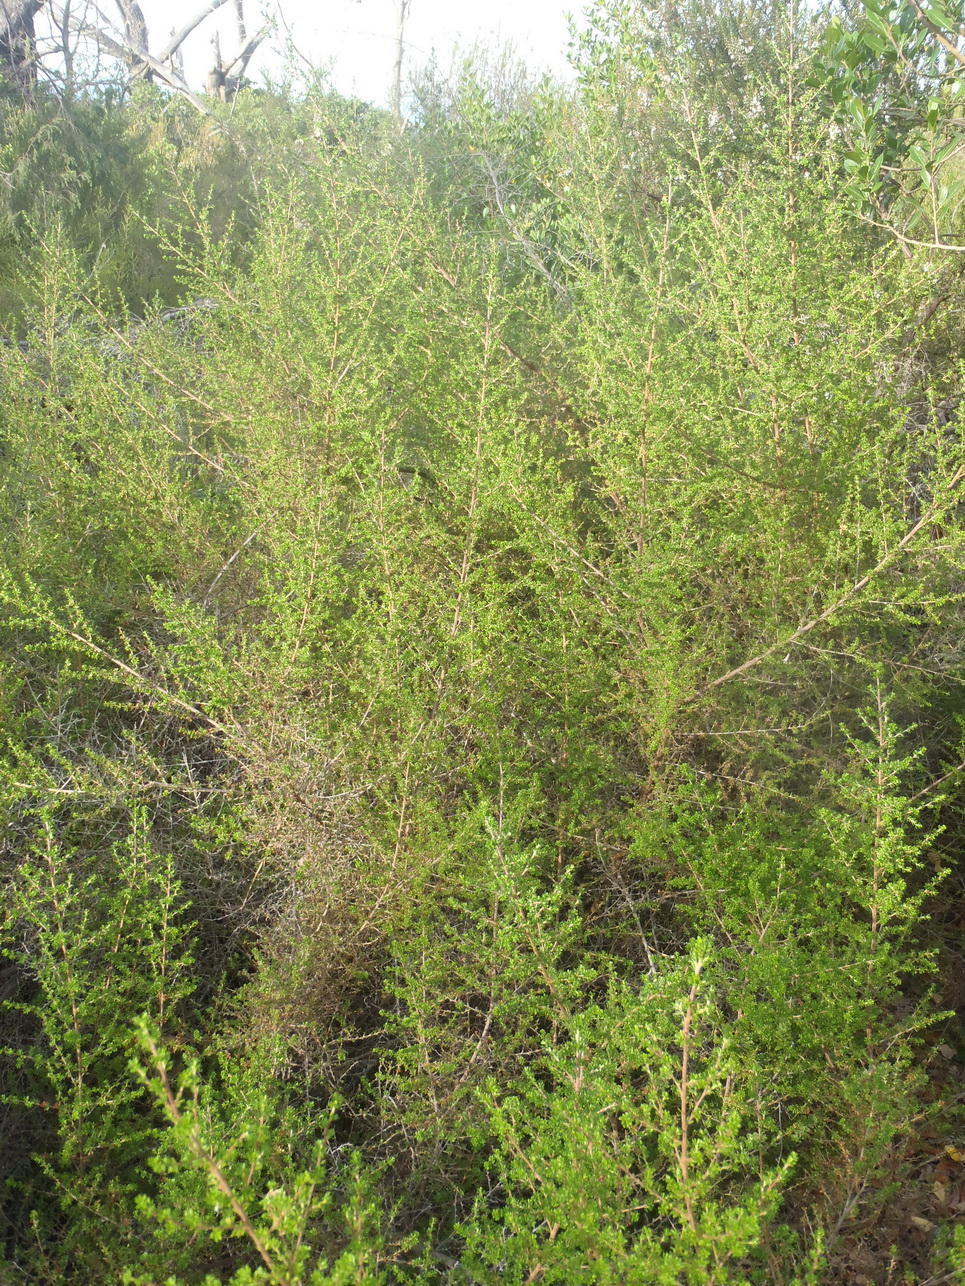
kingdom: Plantae
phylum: Tracheophyta
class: Magnoliopsida
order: Rosales
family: Rosaceae
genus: Cliffortia
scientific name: Cliffortia serpyllifolia
